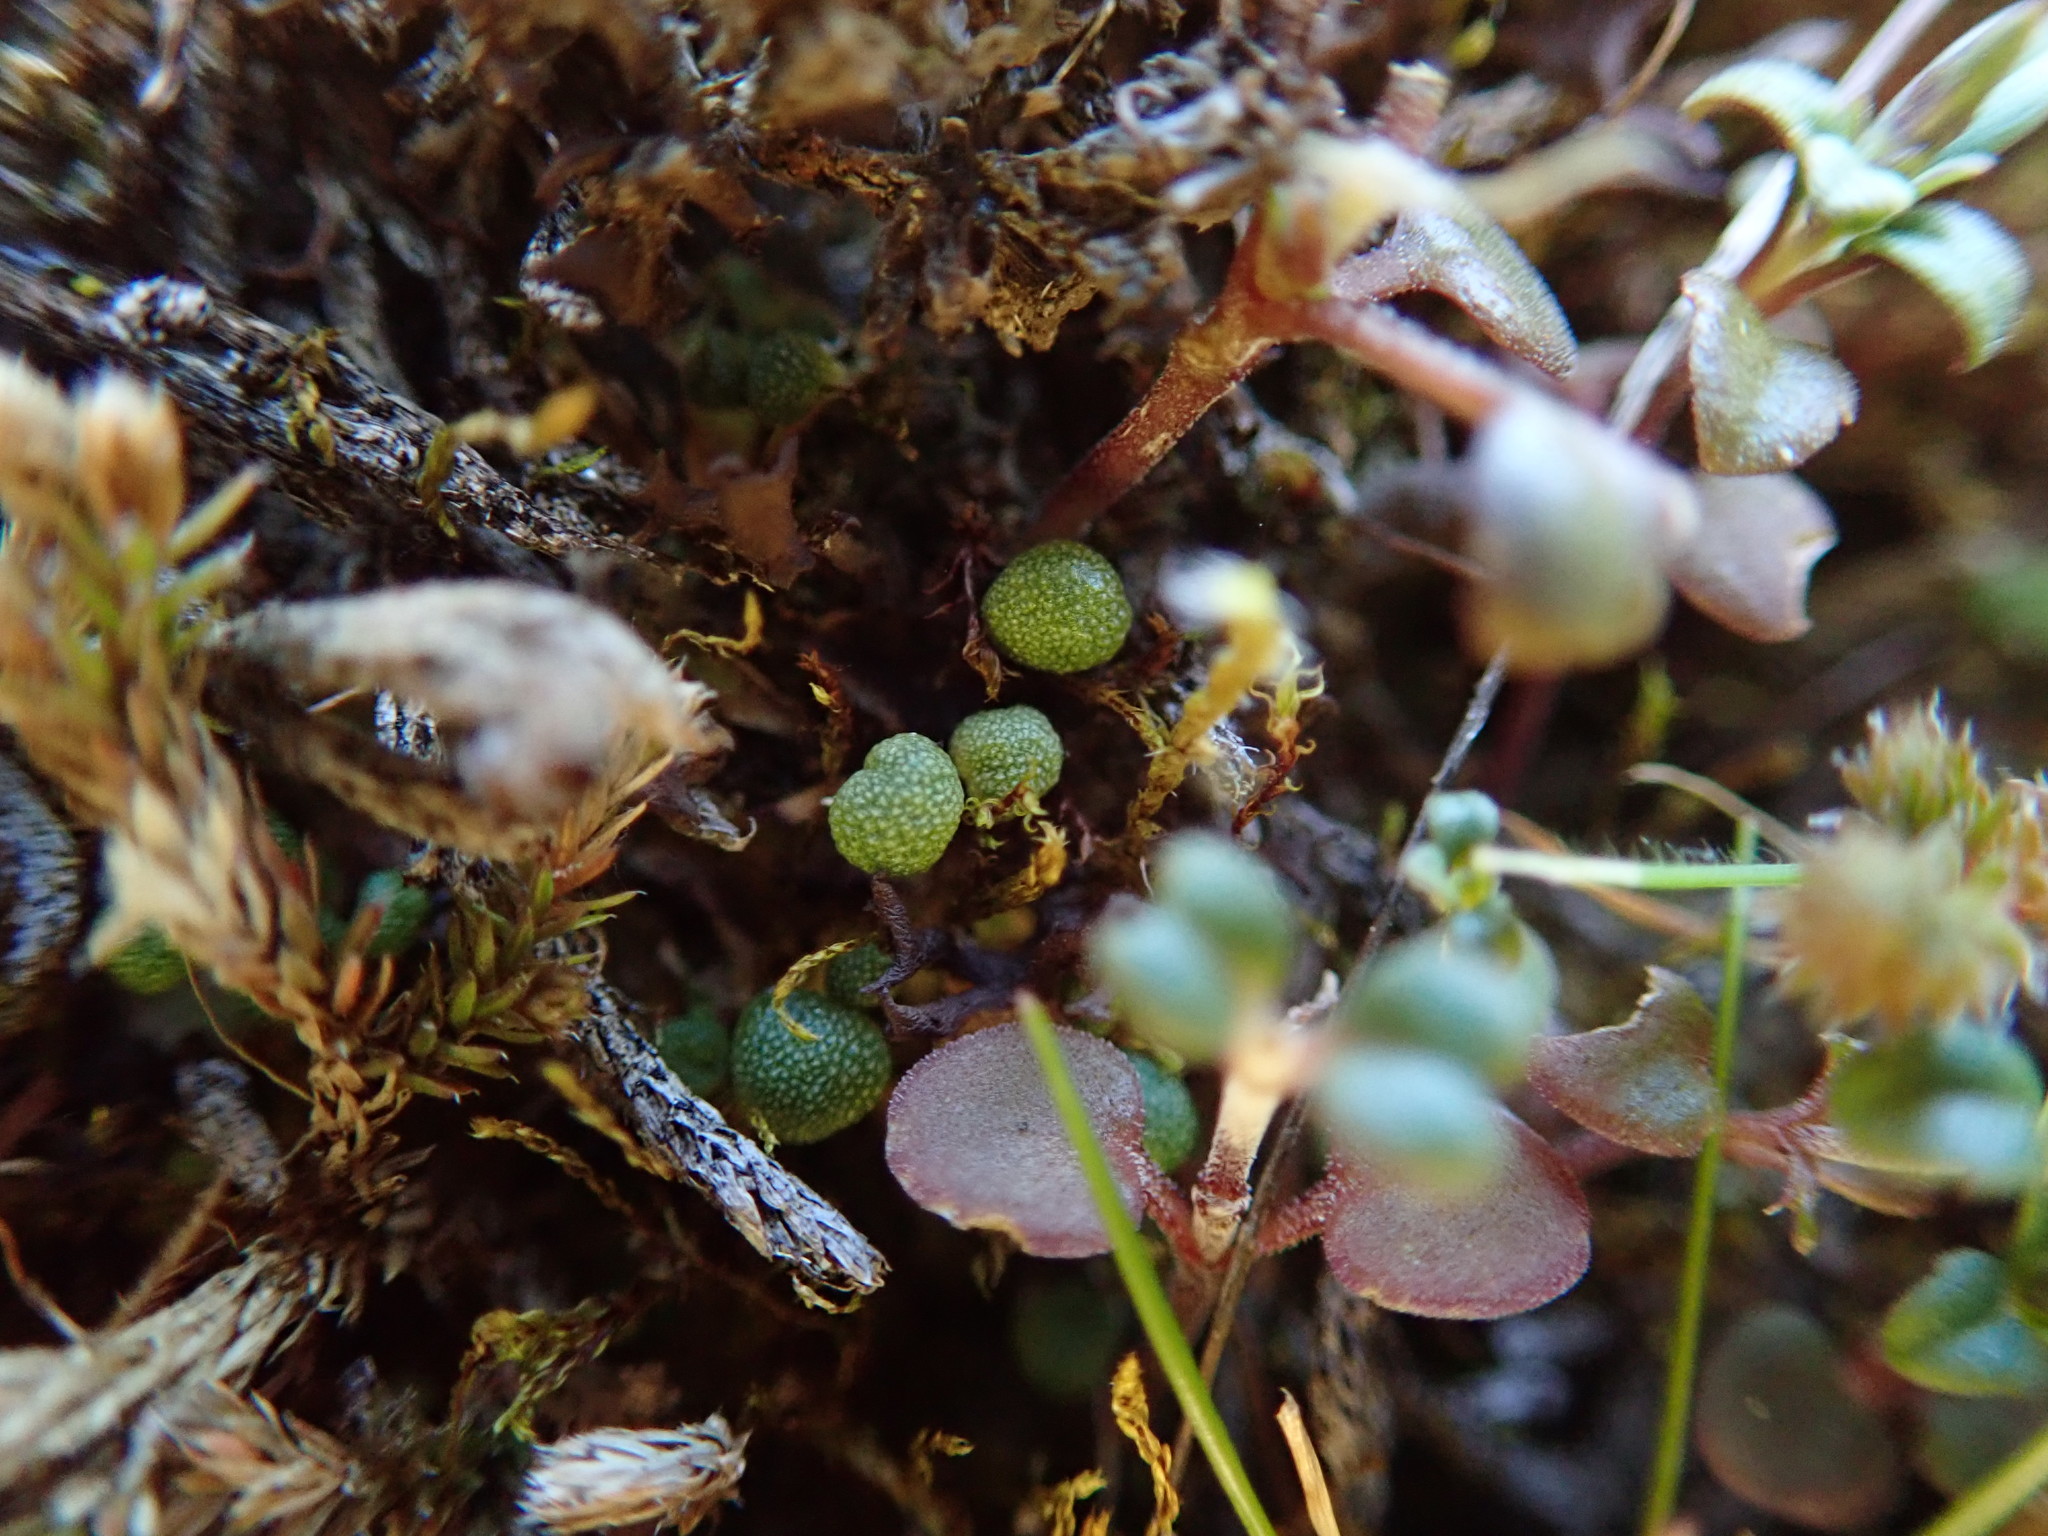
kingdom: Plantae
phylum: Marchantiophyta
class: Marchantiopsida
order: Marchantiales
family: Aytoniaceae
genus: Mannia
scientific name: Mannia gracilis
